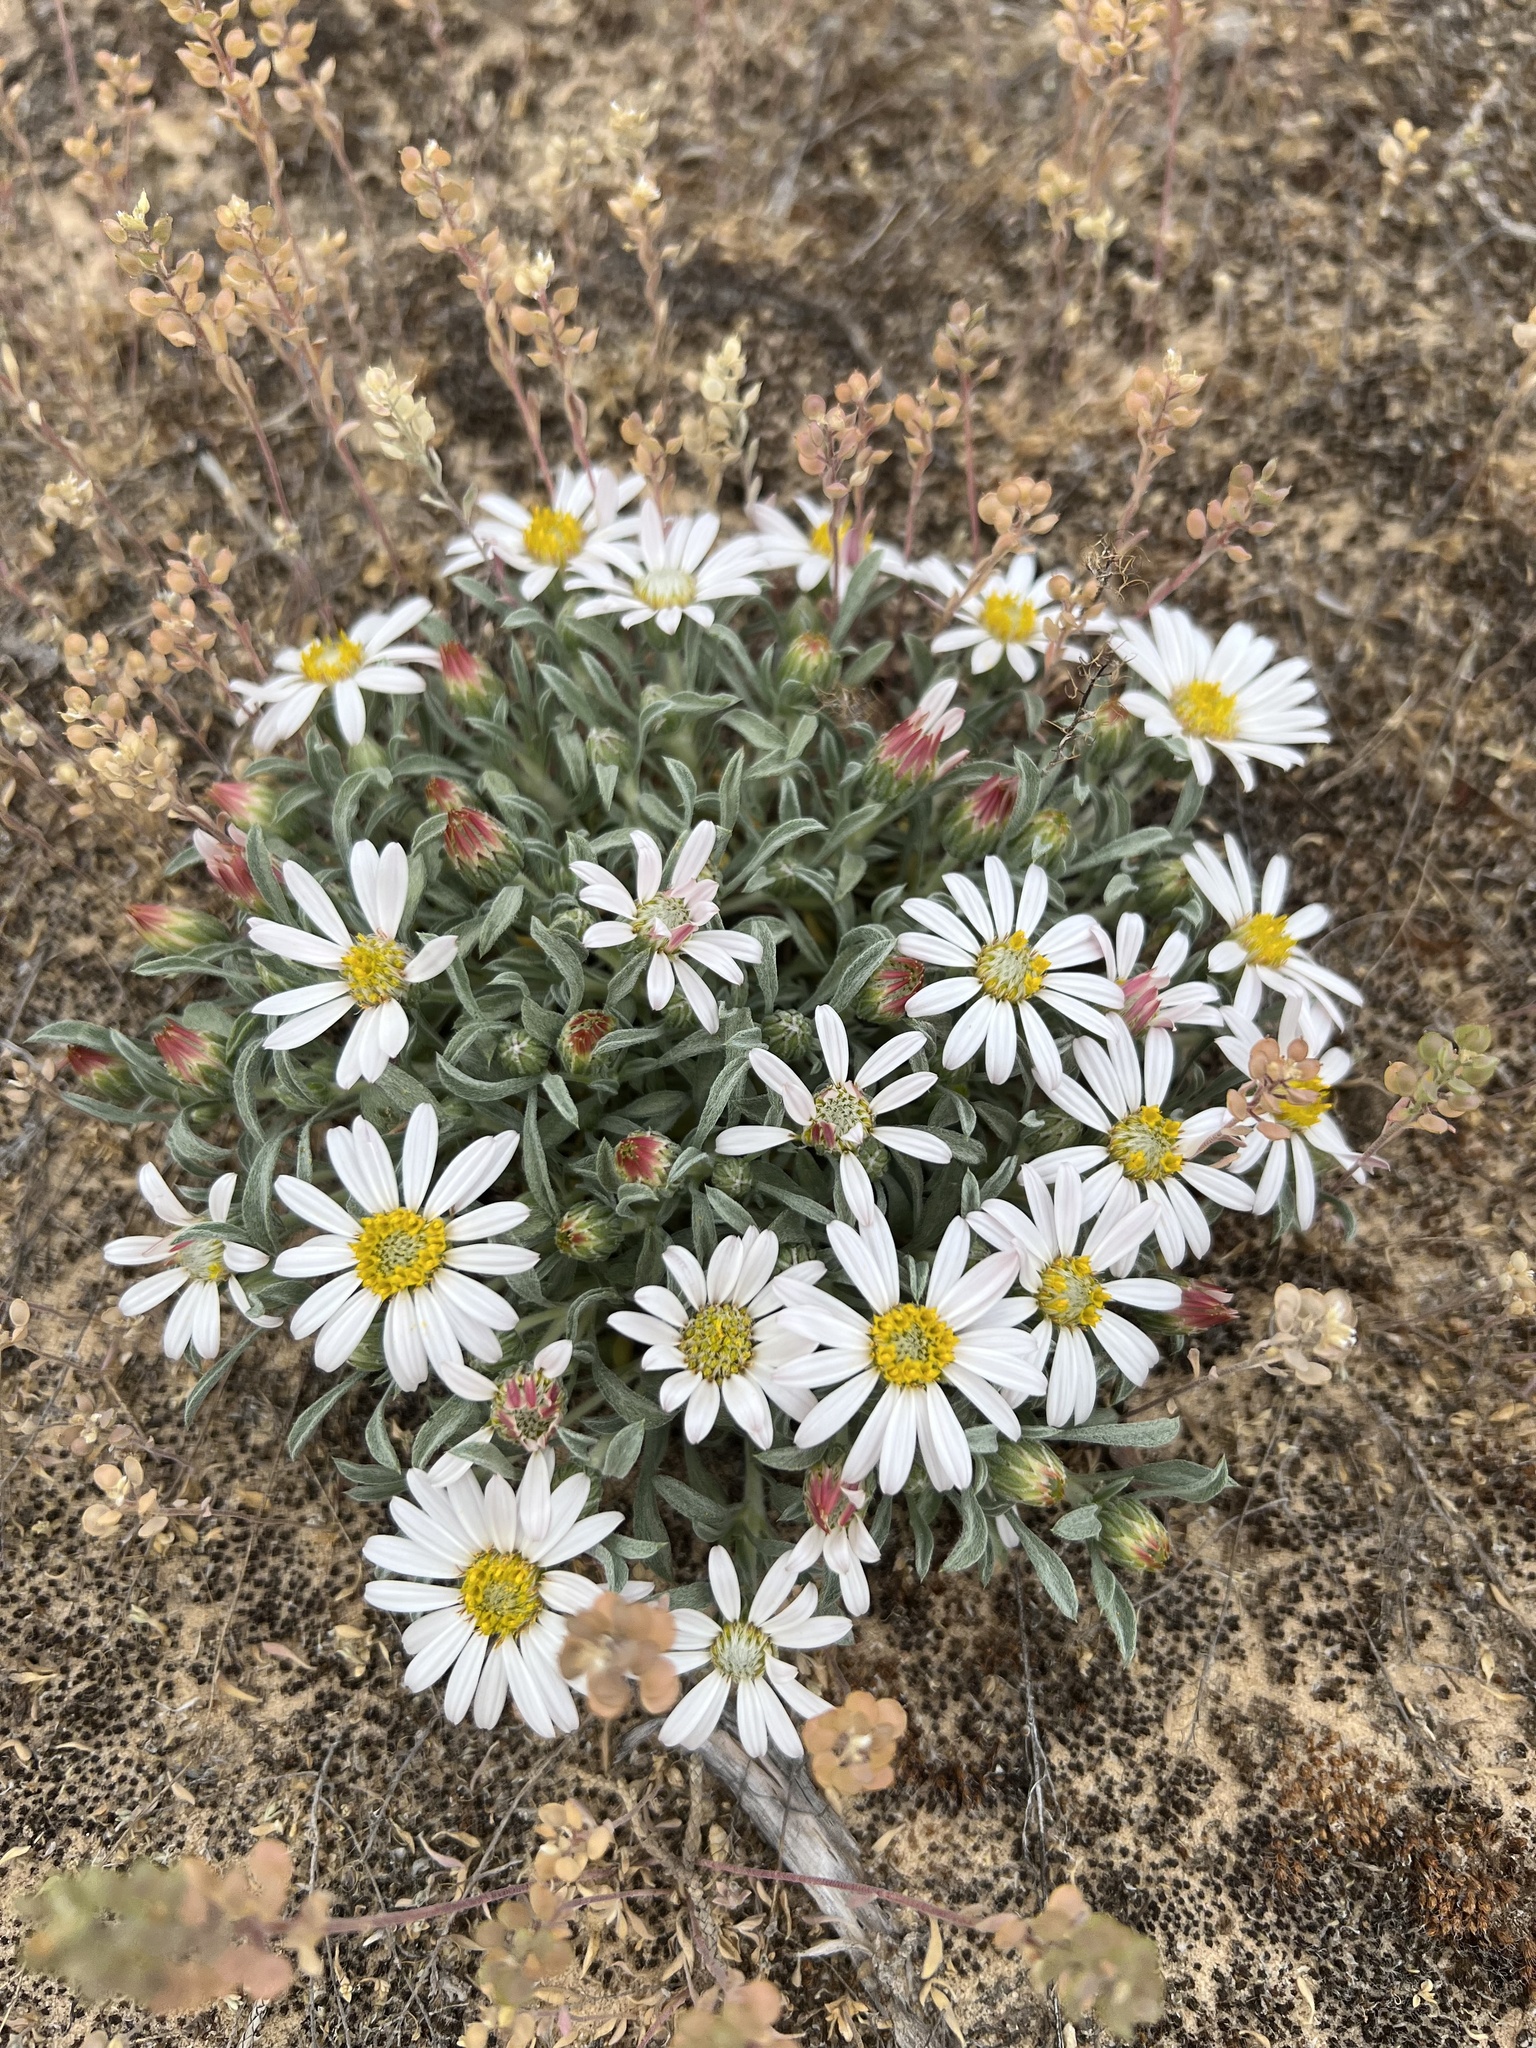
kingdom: Plantae
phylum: Tracheophyta
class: Magnoliopsida
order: Asterales
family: Asteraceae
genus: Townsendia
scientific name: Townsendia incana
